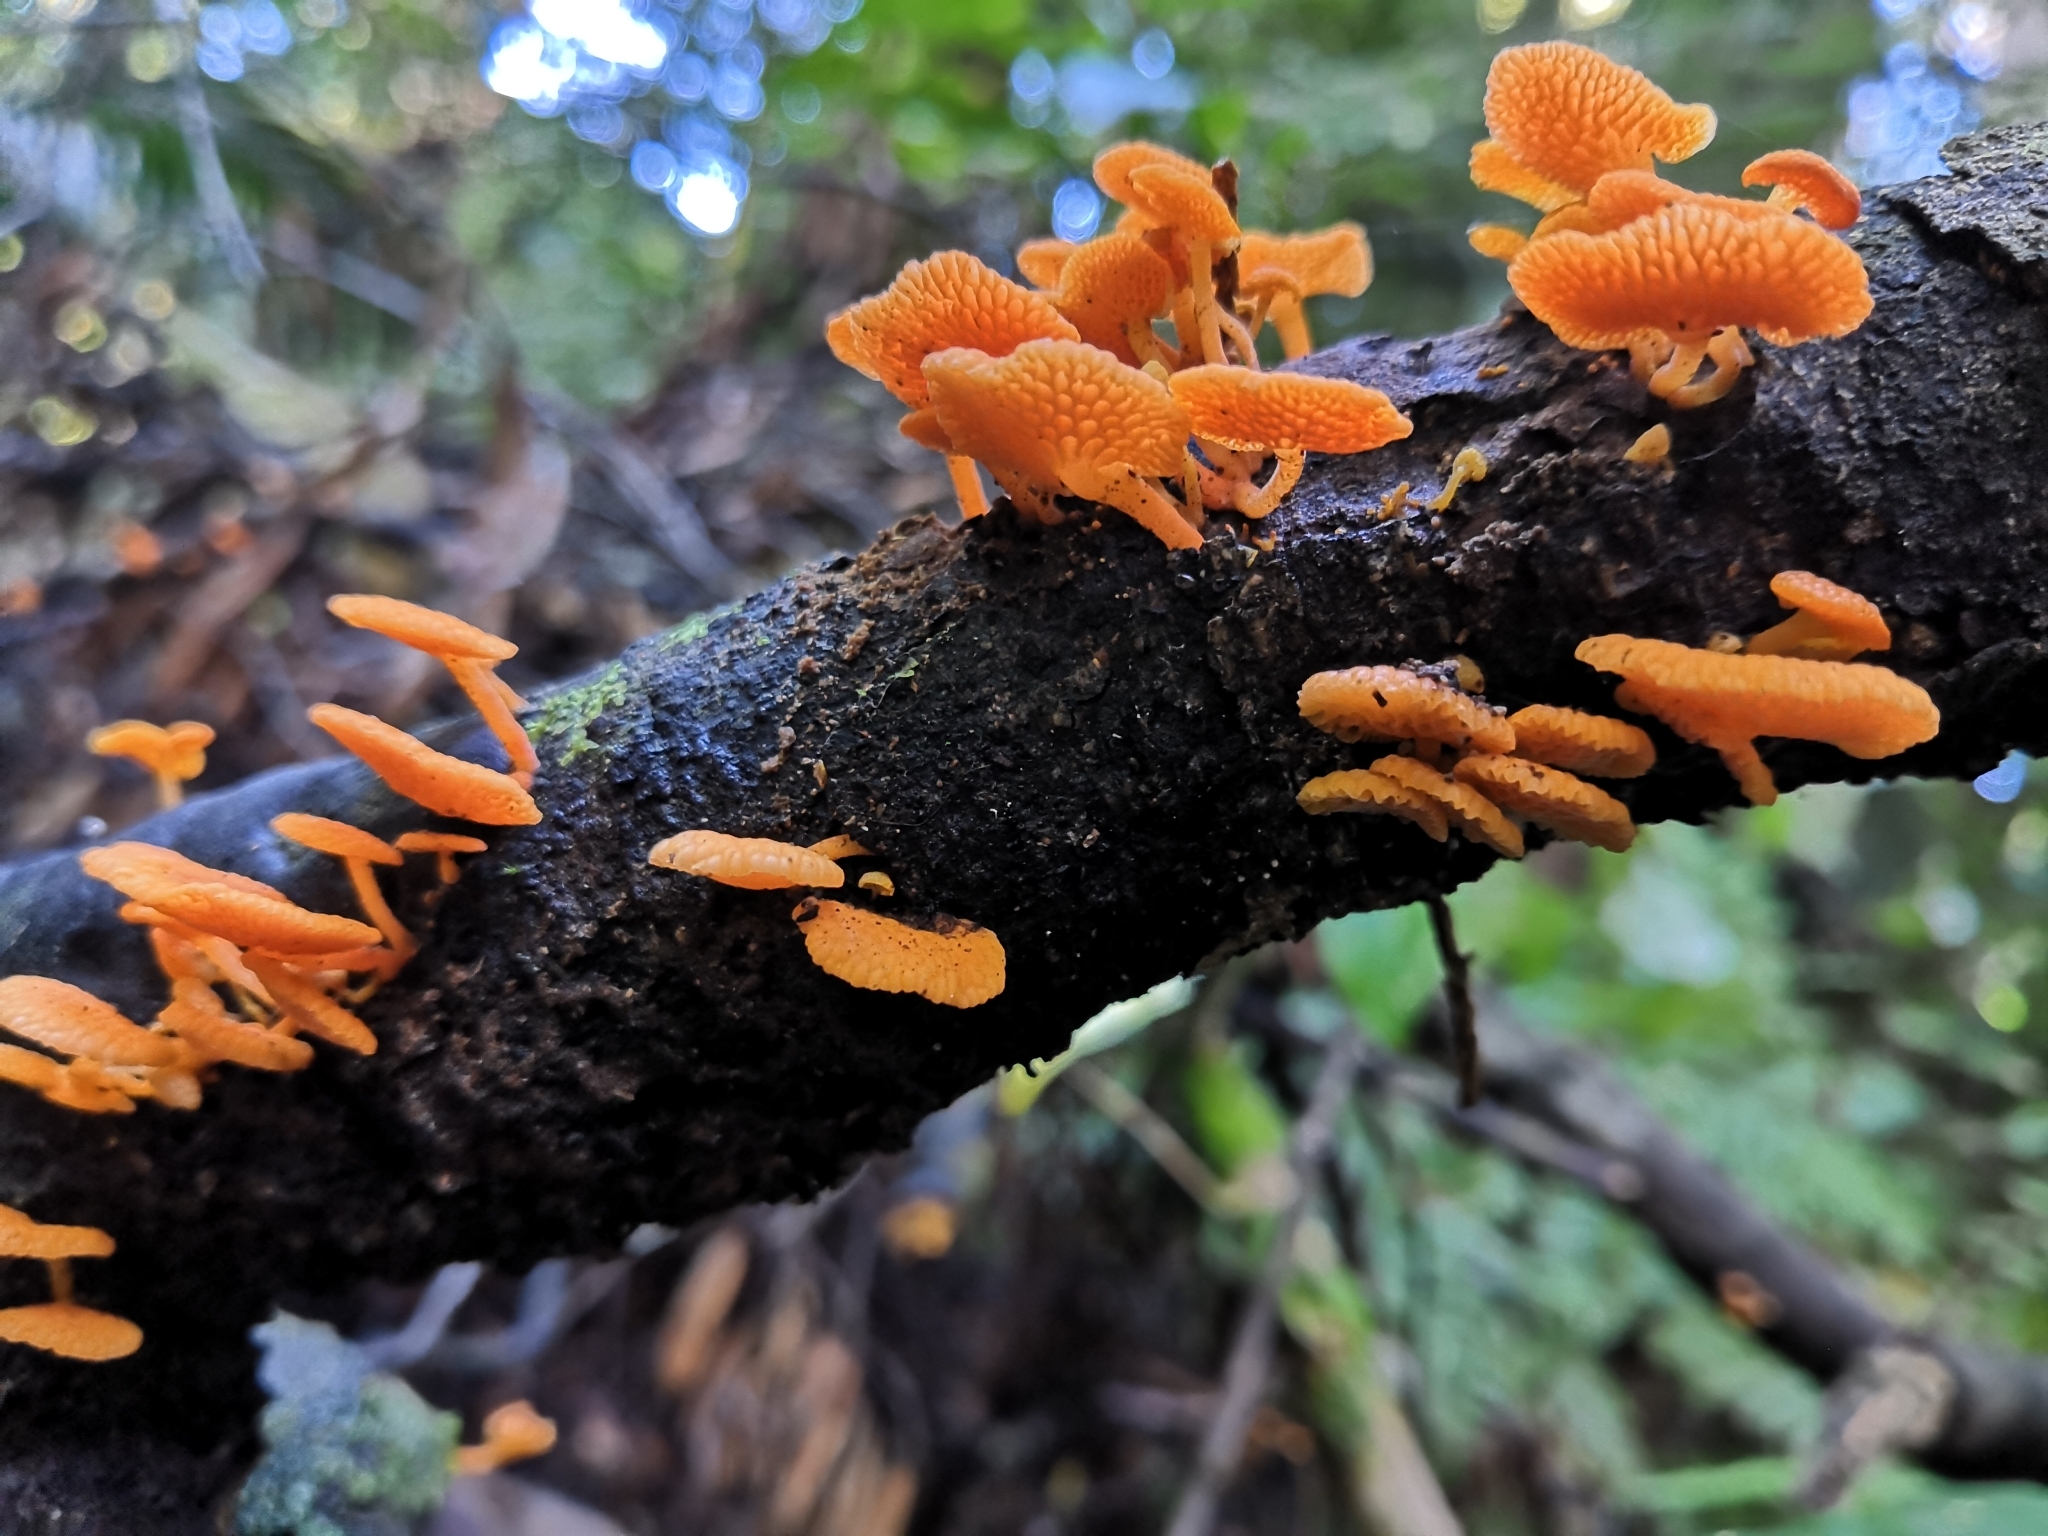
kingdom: Fungi
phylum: Basidiomycota
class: Agaricomycetes
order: Agaricales
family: Mycenaceae
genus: Favolaschia
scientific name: Favolaschia claudopus
